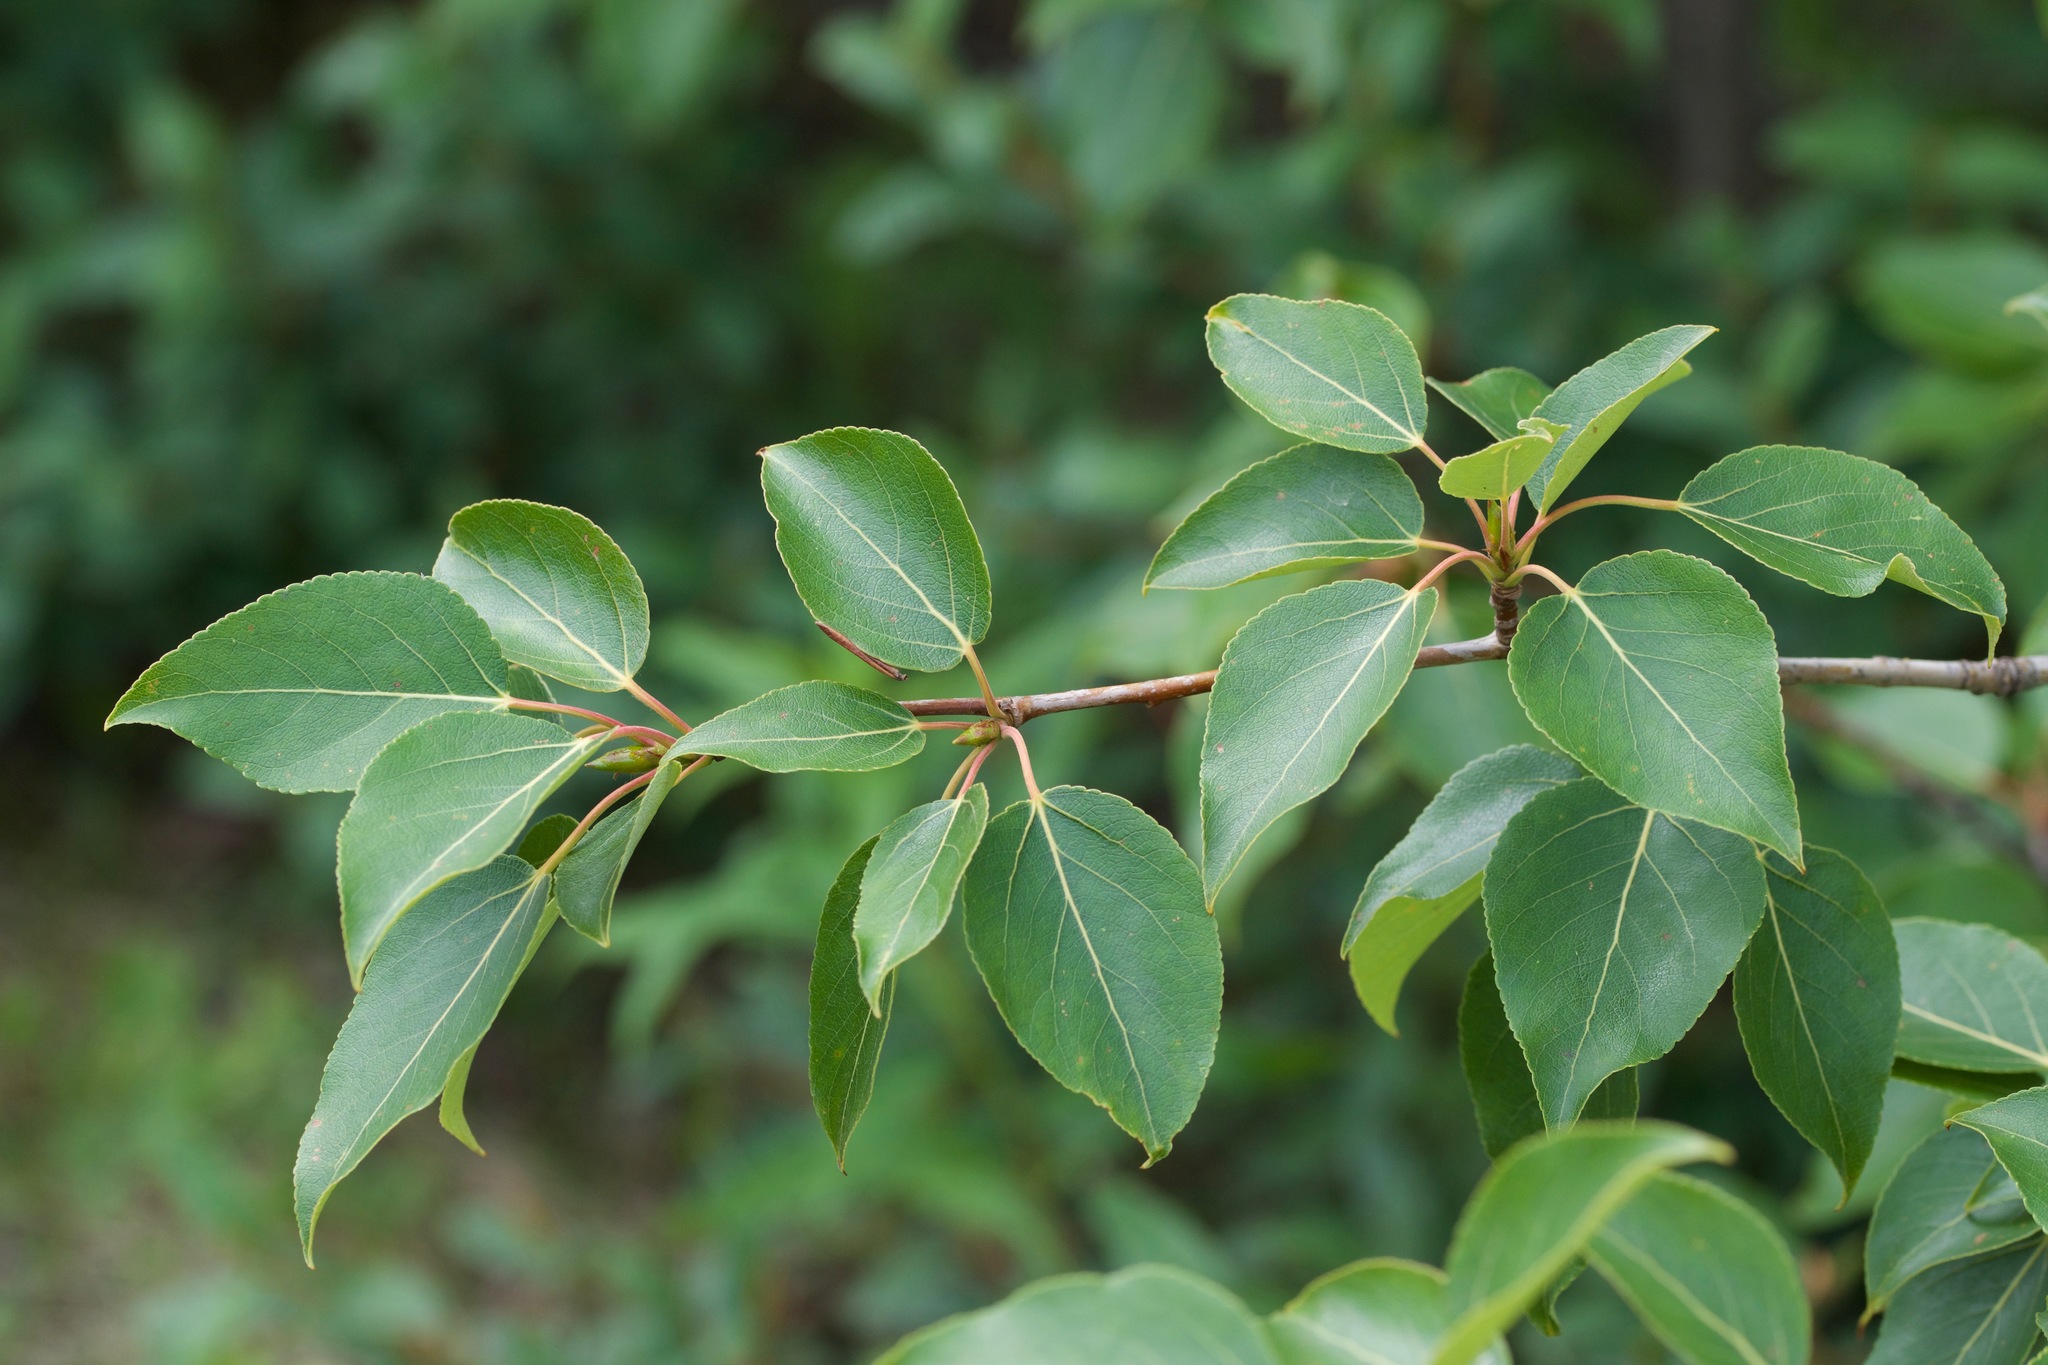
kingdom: Plantae
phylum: Tracheophyta
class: Magnoliopsida
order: Malpighiales
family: Salicaceae
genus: Populus
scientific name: Populus balsamifera
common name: Balsam poplar
